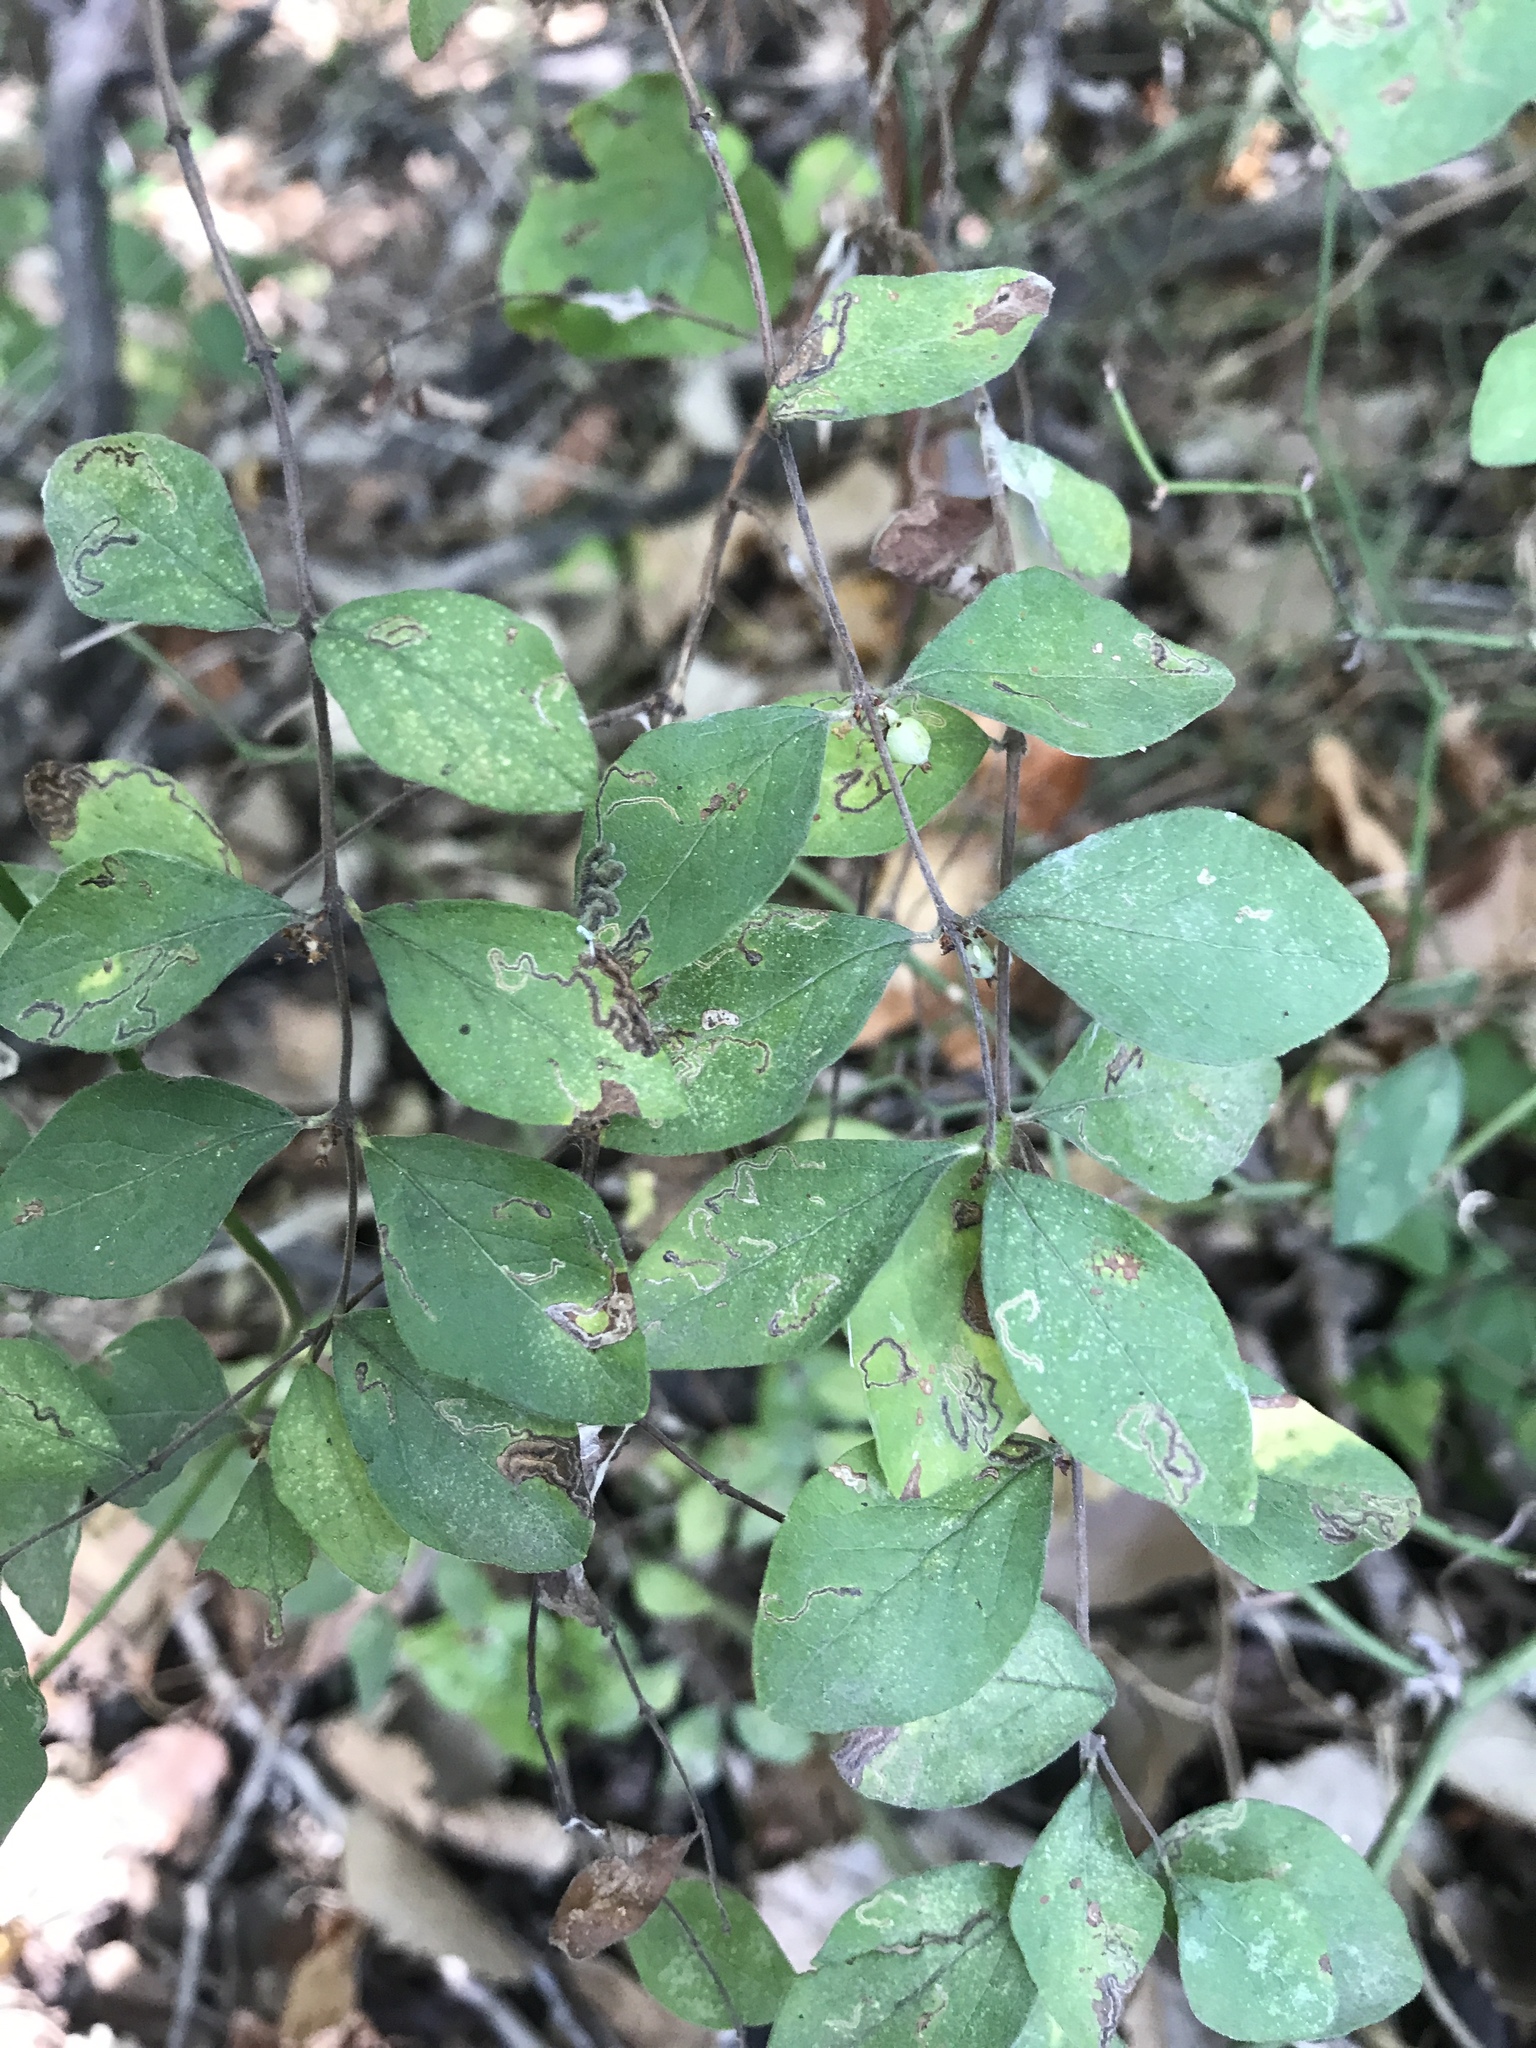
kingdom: Plantae
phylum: Tracheophyta
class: Magnoliopsida
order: Dipsacales
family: Caprifoliaceae
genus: Symphoricarpos
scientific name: Symphoricarpos orbiculatus
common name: Coralberry
